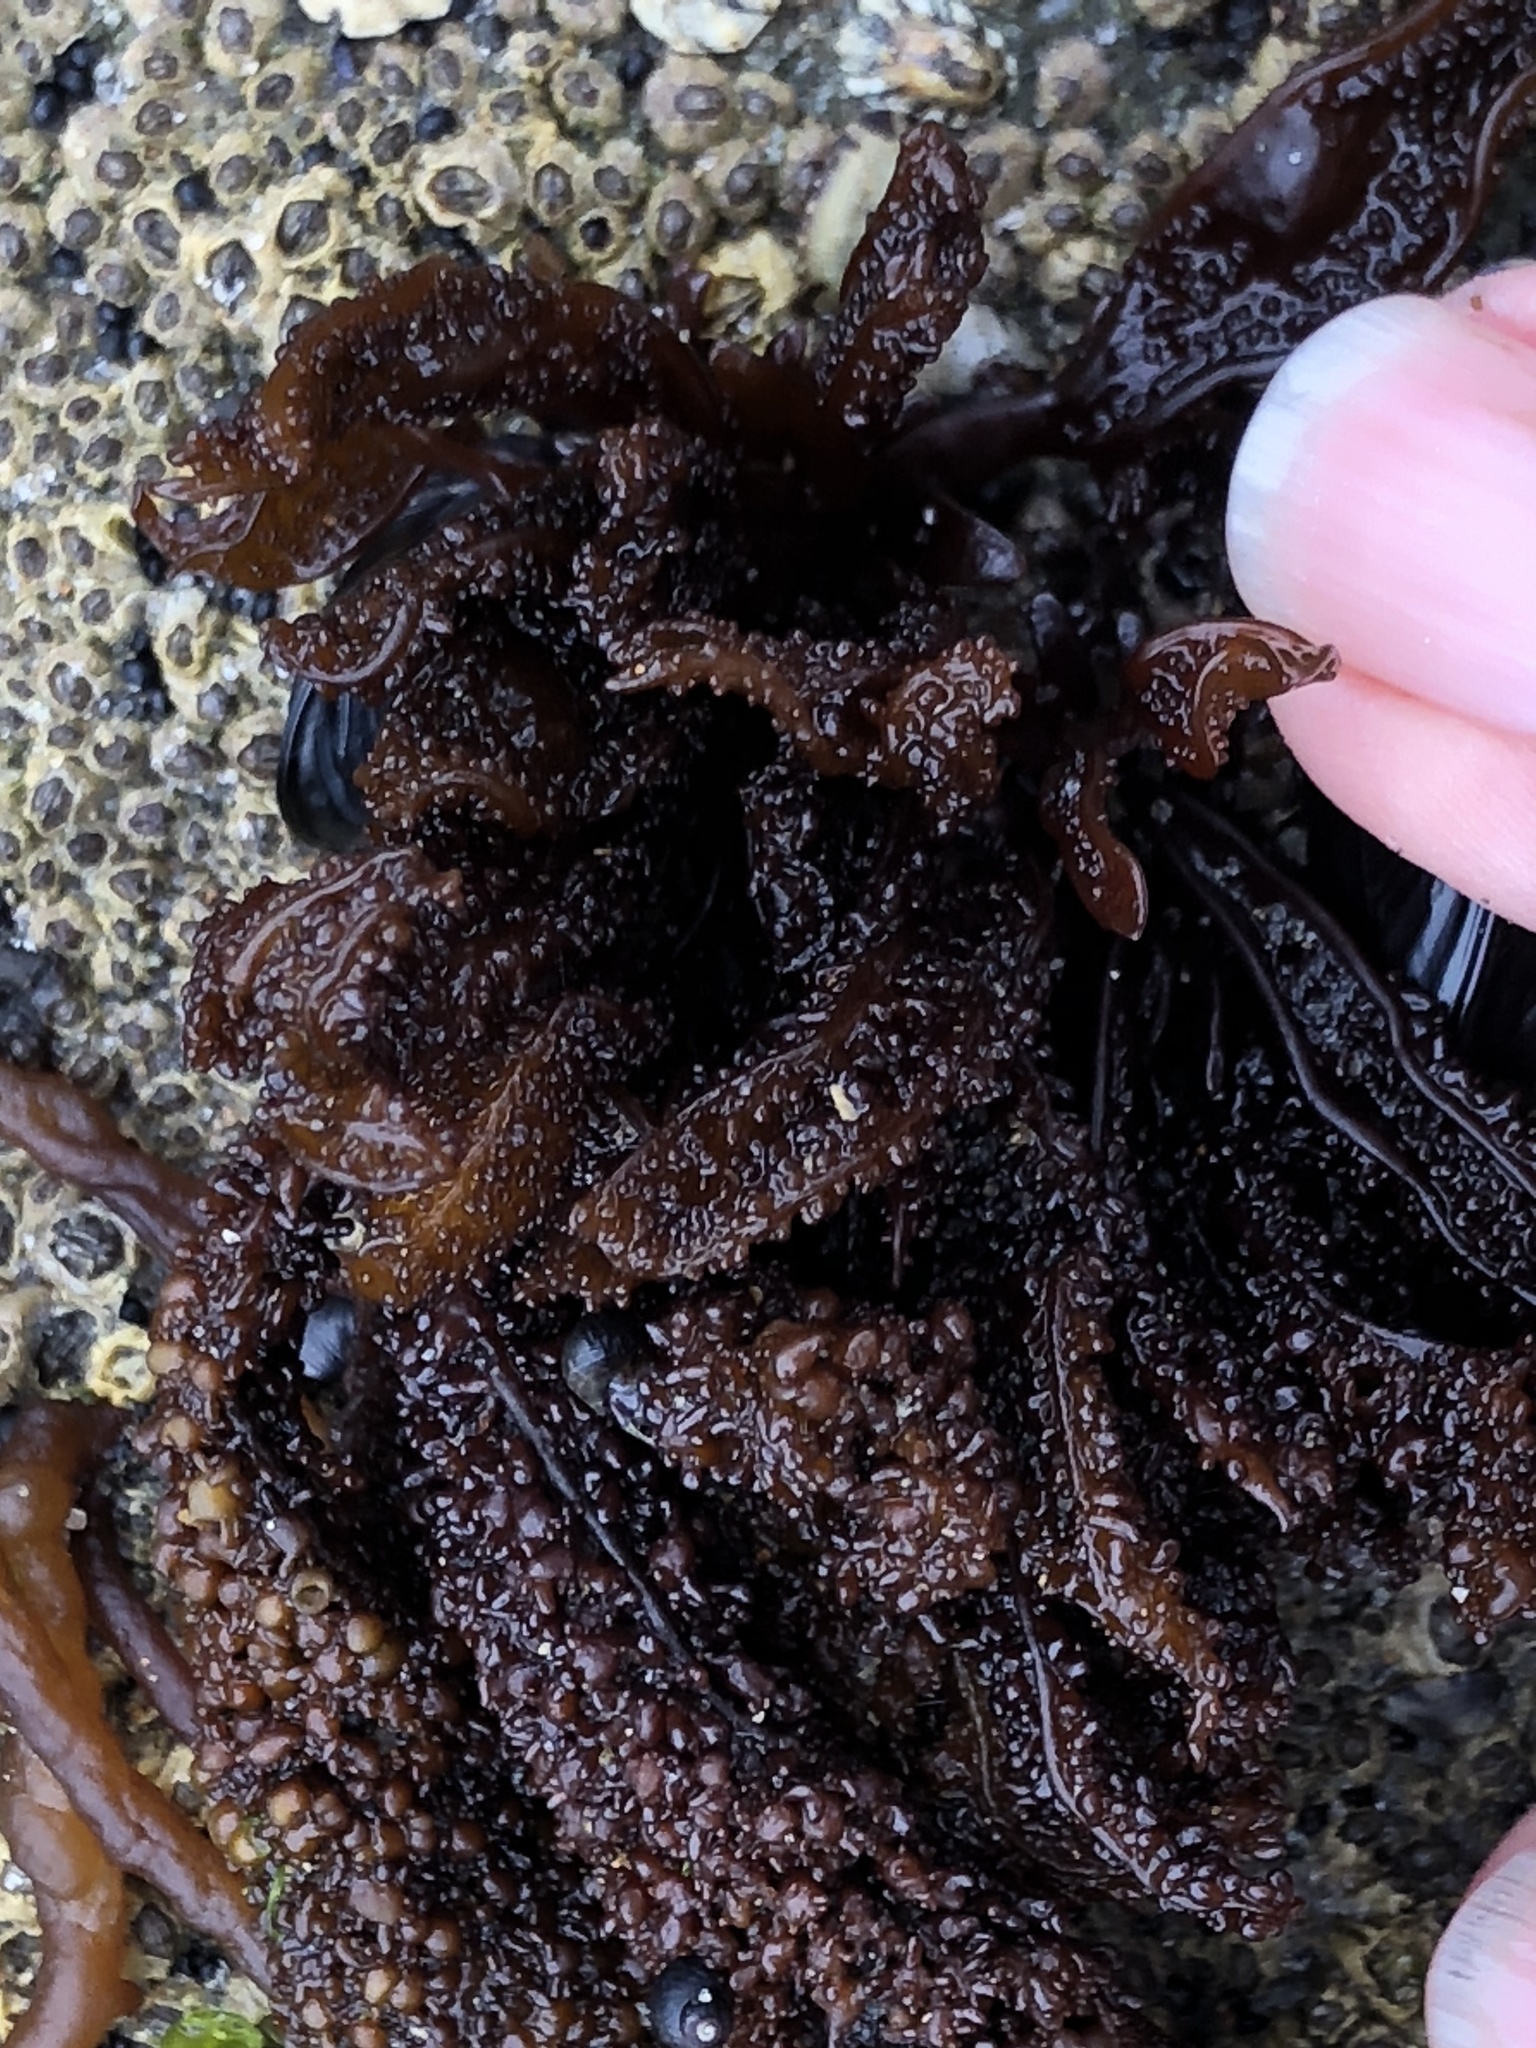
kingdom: Plantae
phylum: Rhodophyta
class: Florideophyceae
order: Gigartinales
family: Phyllophoraceae
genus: Mastocarpus
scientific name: Mastocarpus papillatus
